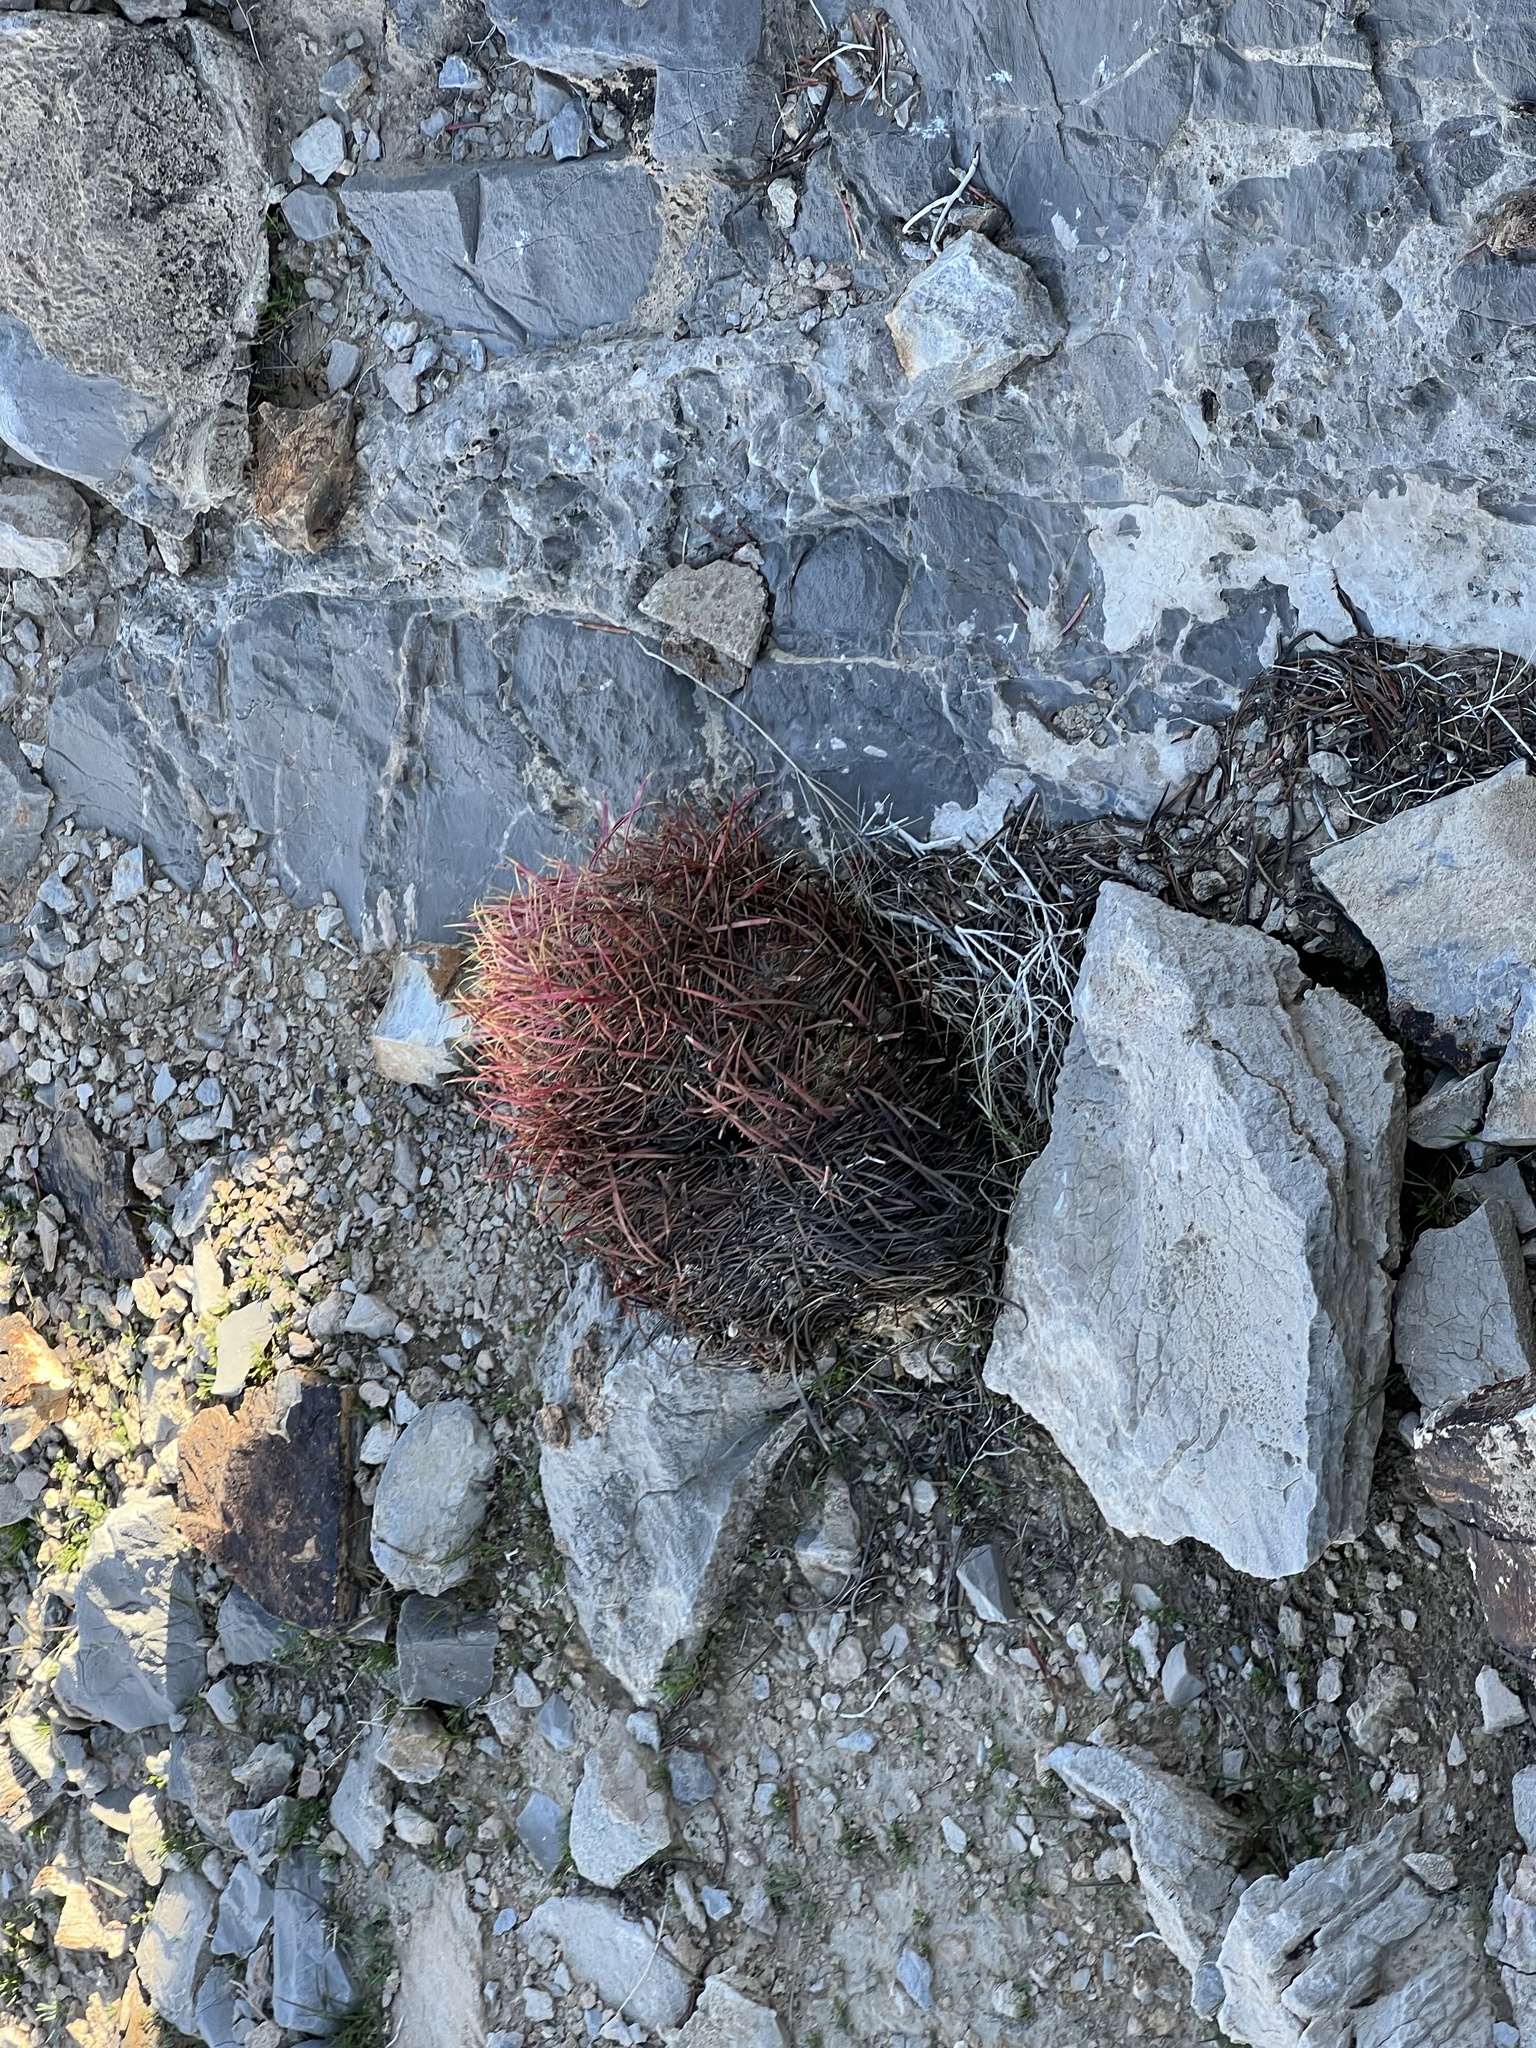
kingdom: Plantae
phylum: Tracheophyta
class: Magnoliopsida
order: Caryophyllales
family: Cactaceae
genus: Ferocactus
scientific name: Ferocactus cylindraceus
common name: California barrel cactus
